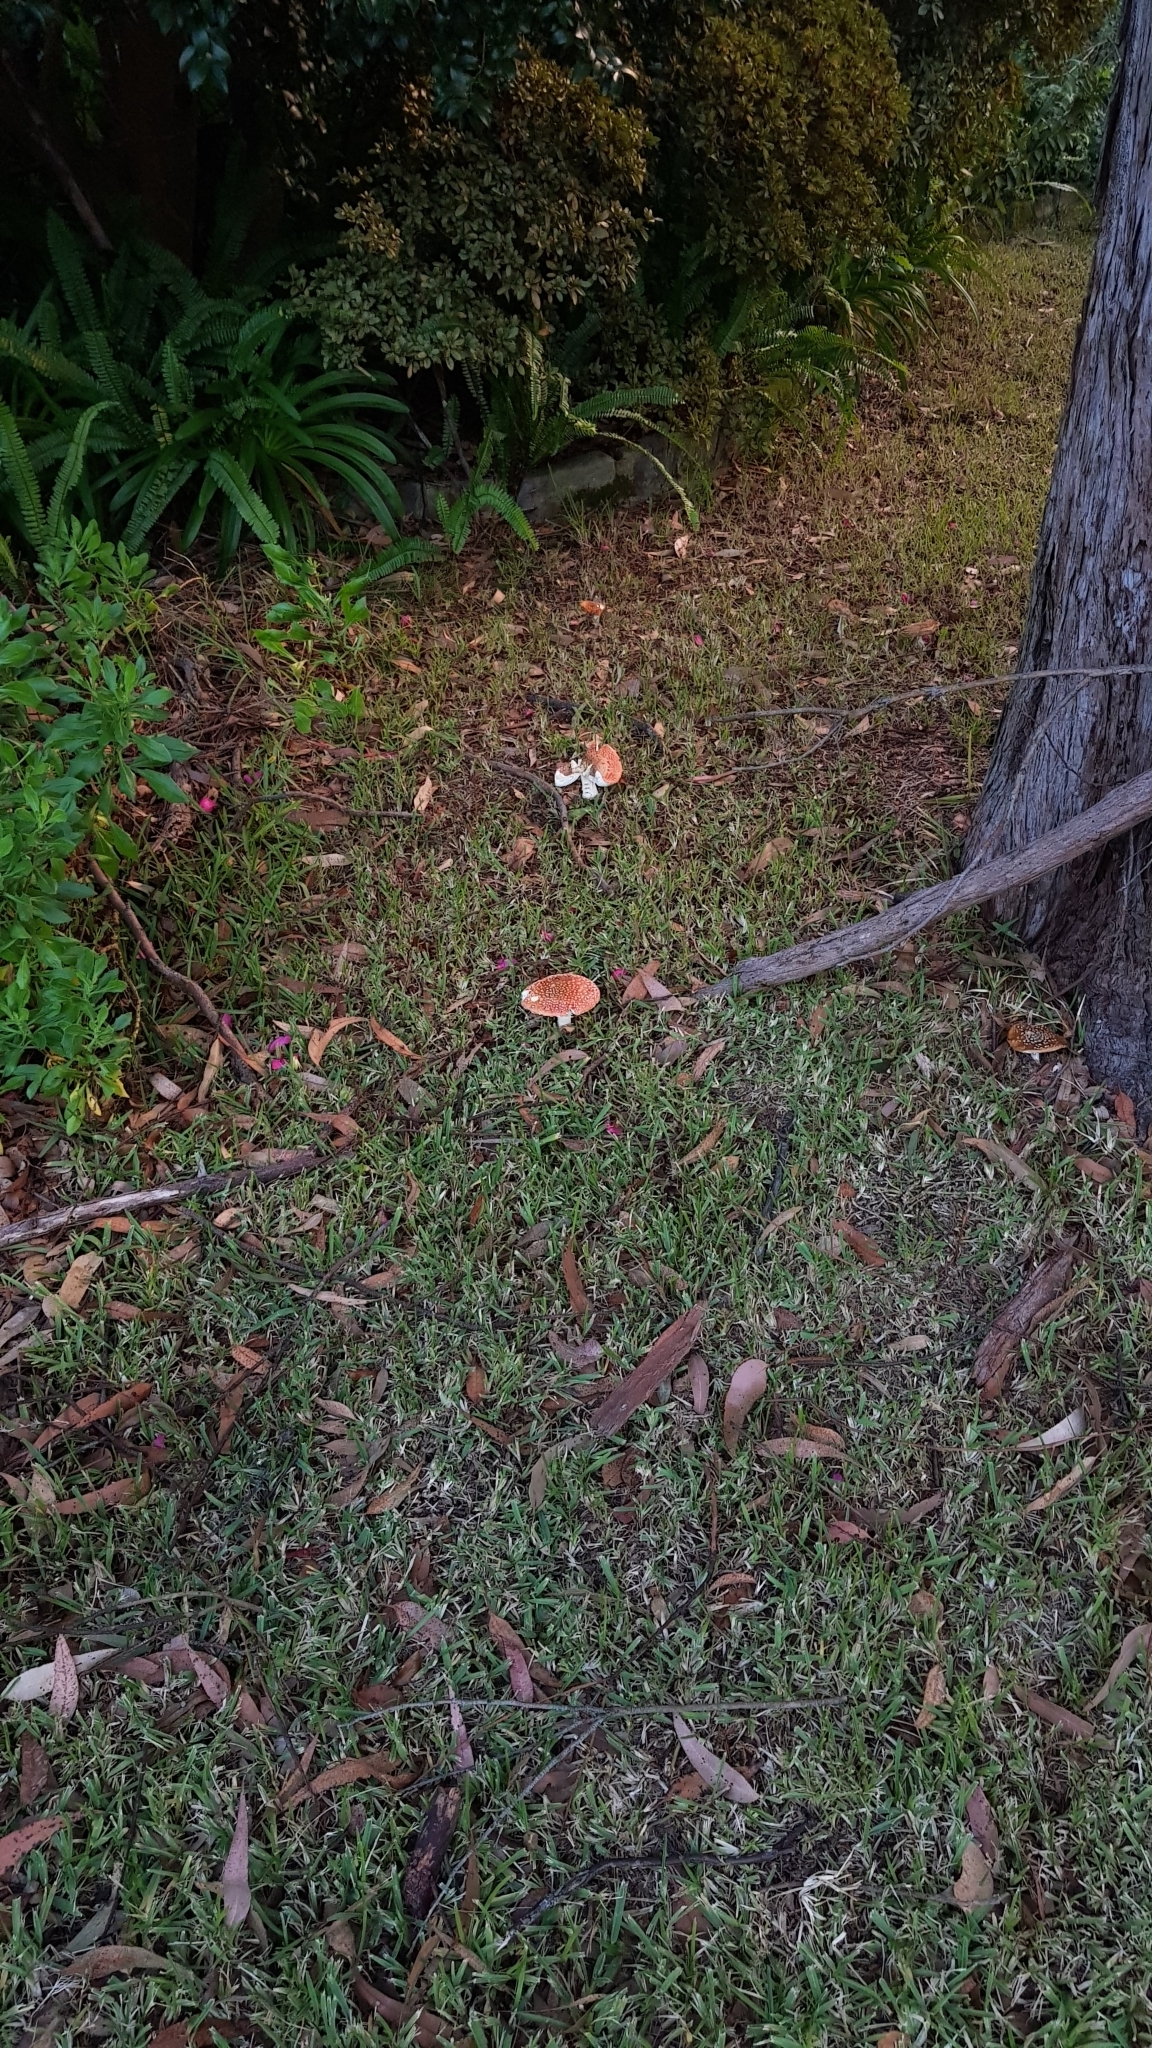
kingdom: Fungi
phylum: Basidiomycota
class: Agaricomycetes
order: Agaricales
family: Amanitaceae
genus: Amanita
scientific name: Amanita muscaria
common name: Fly agaric
